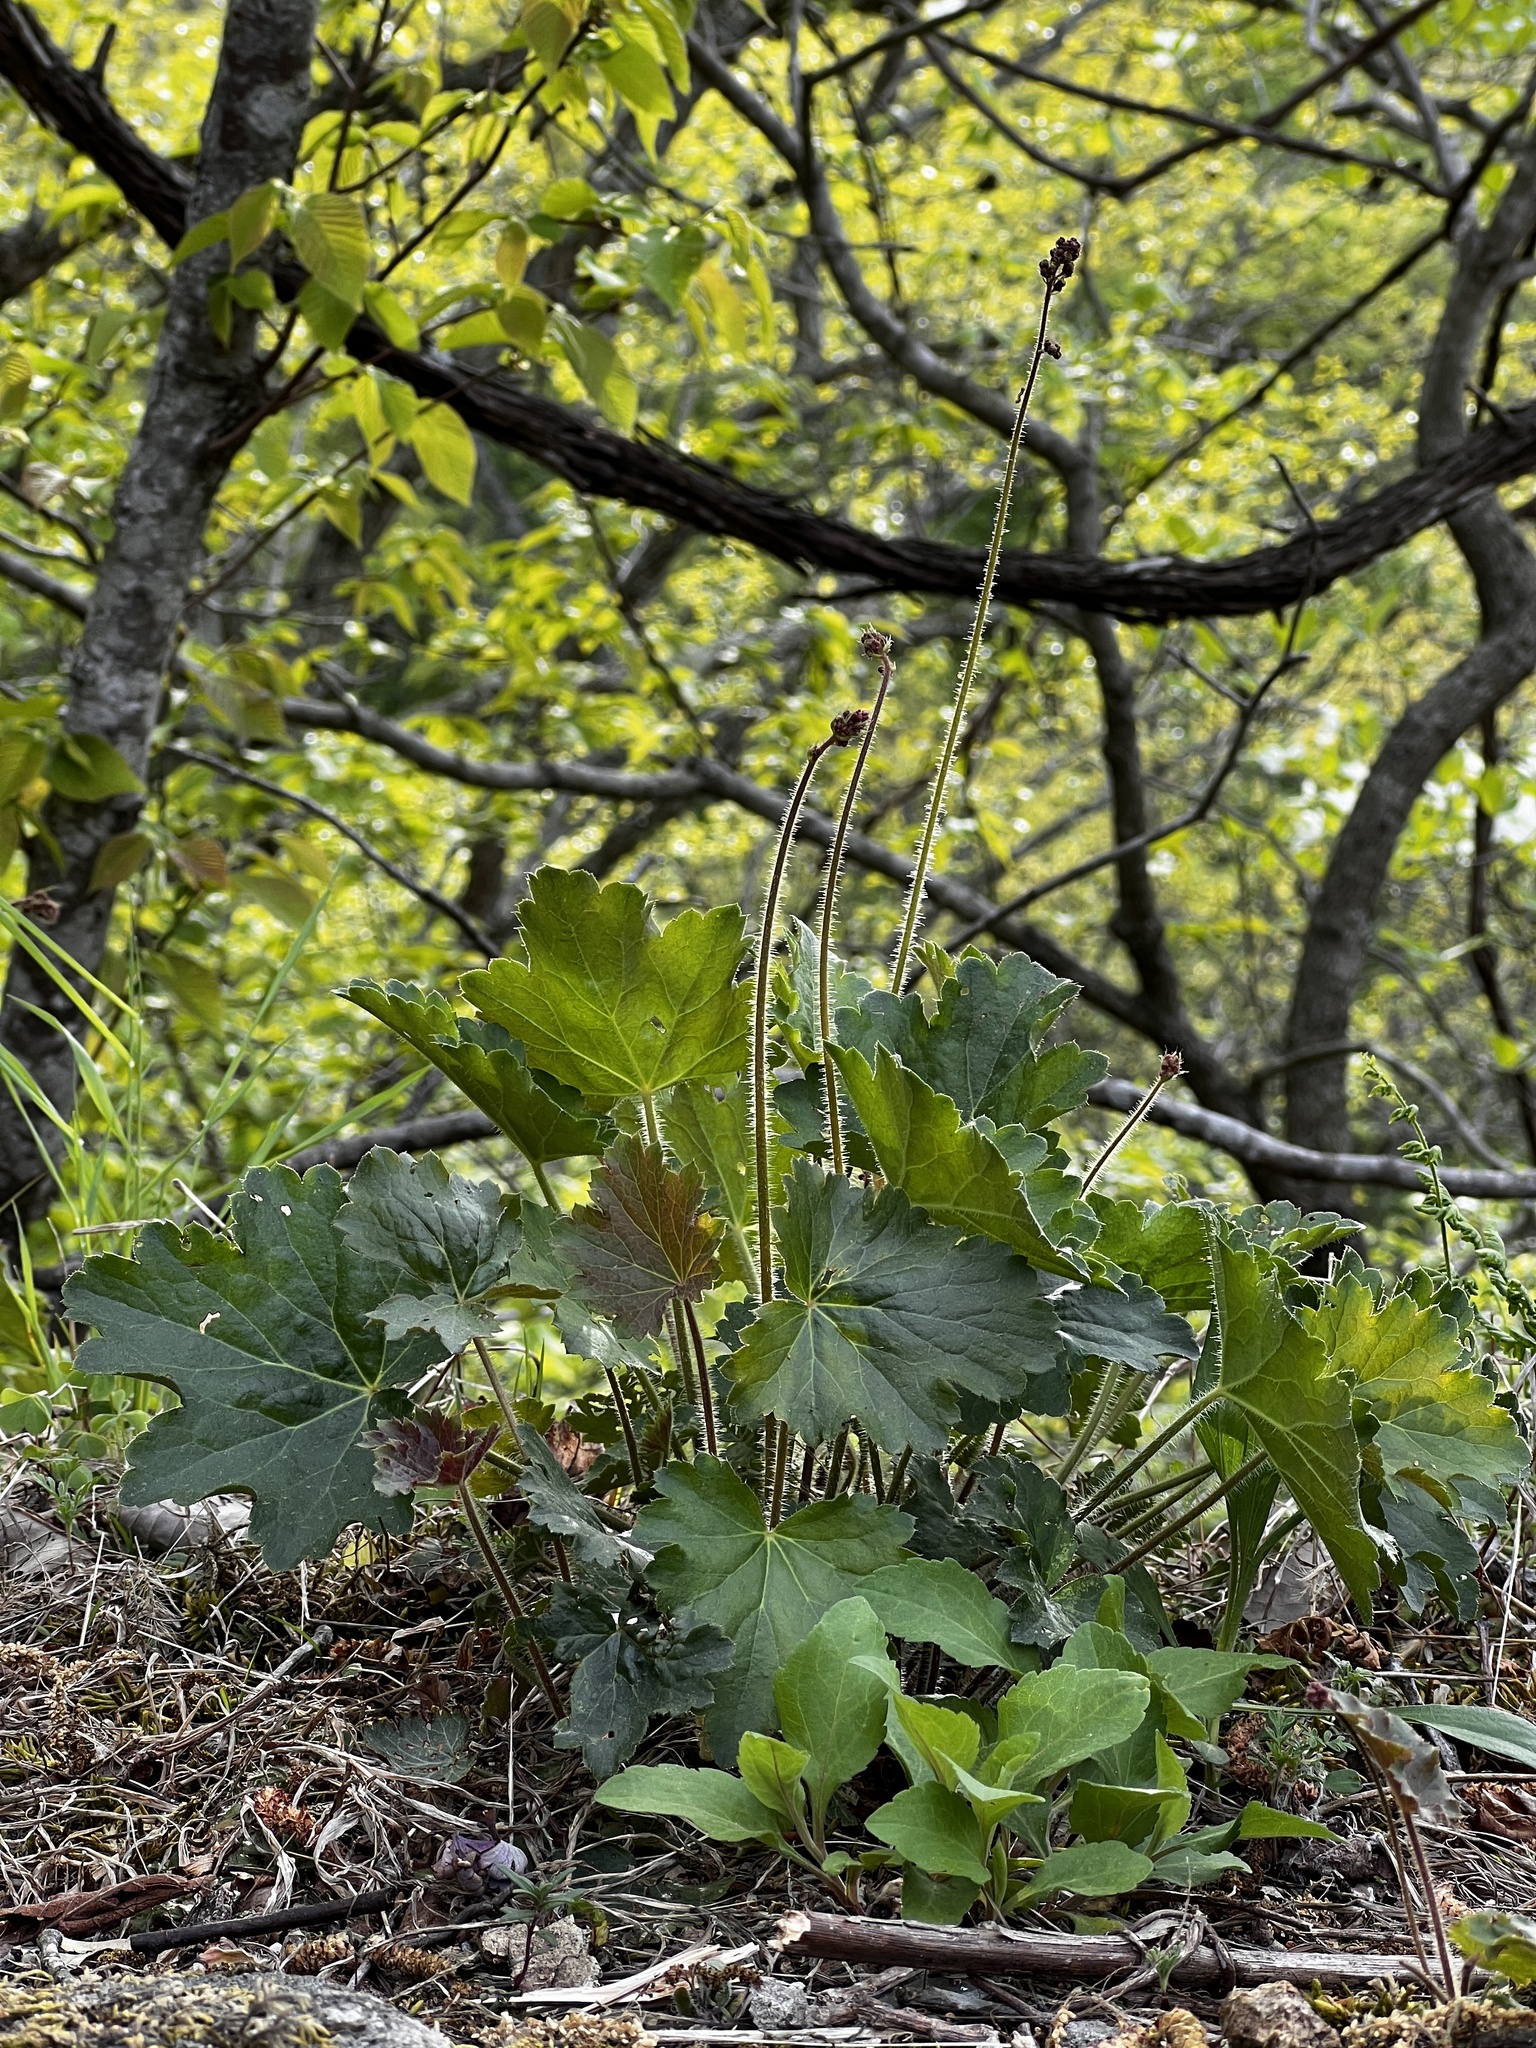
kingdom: Plantae
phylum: Tracheophyta
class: Magnoliopsida
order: Saxifragales
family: Saxifragaceae
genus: Heuchera
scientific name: Heuchera americana
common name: Alumroot
